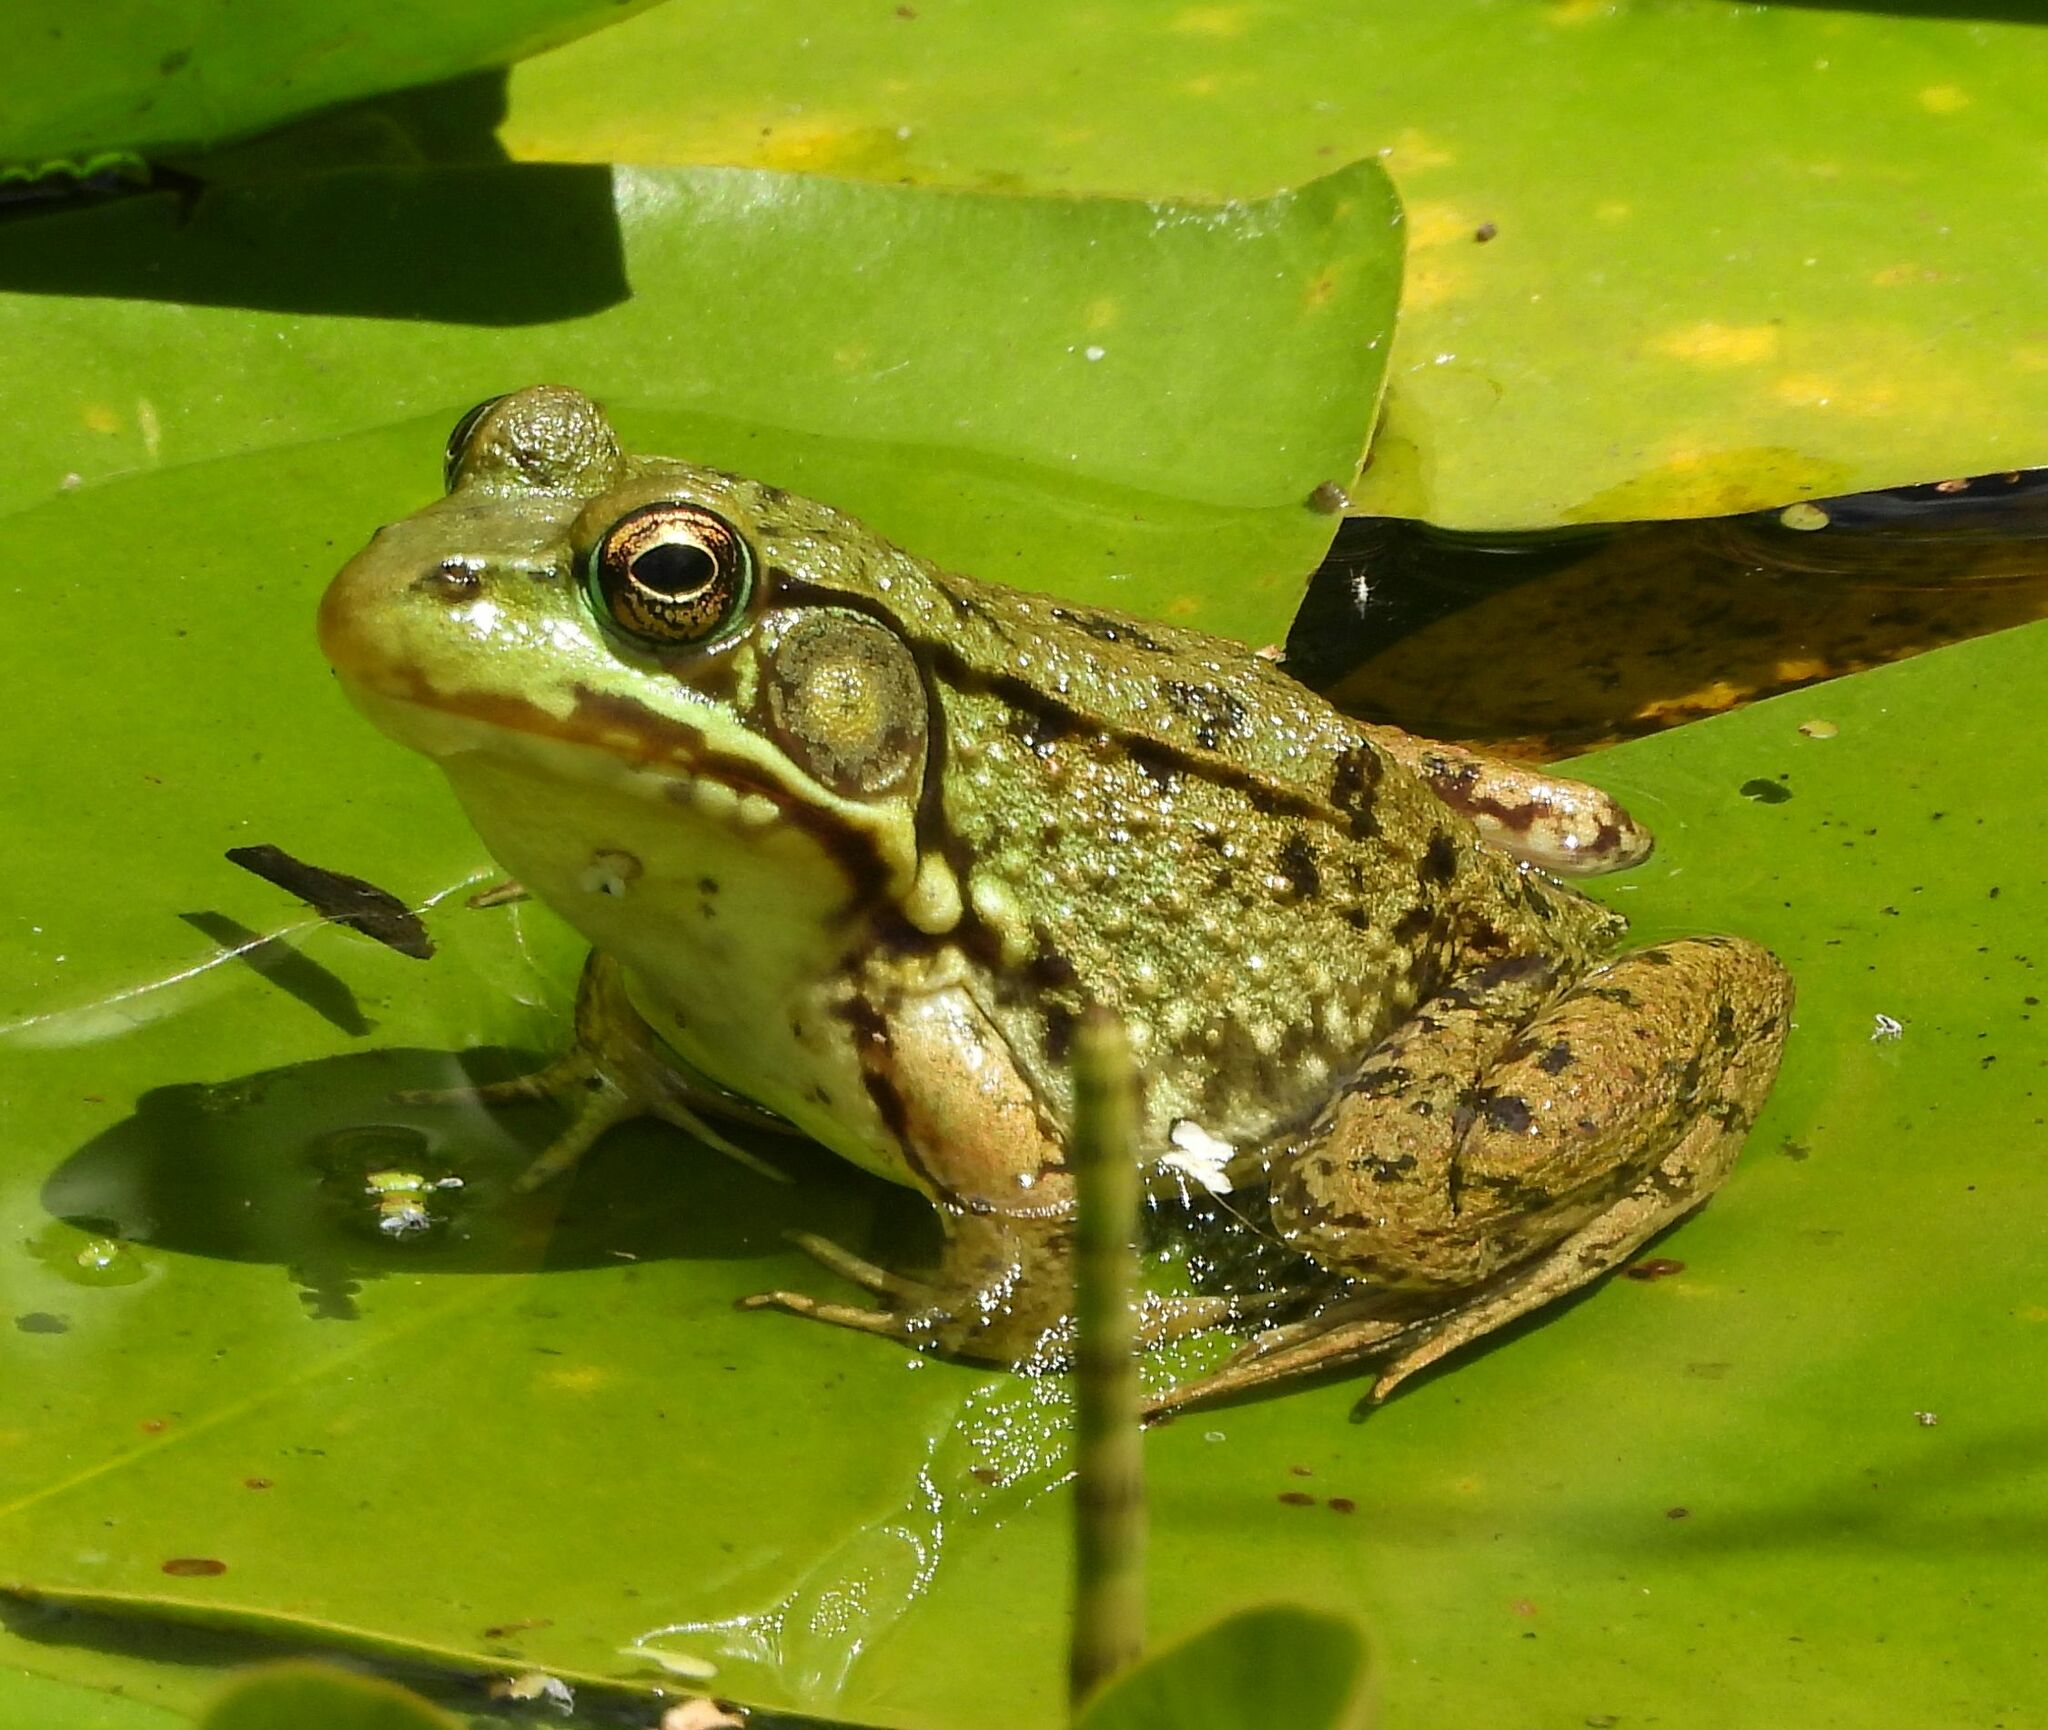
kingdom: Animalia
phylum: Chordata
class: Amphibia
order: Anura
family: Ranidae
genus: Lithobates
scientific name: Lithobates clamitans
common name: Green frog
